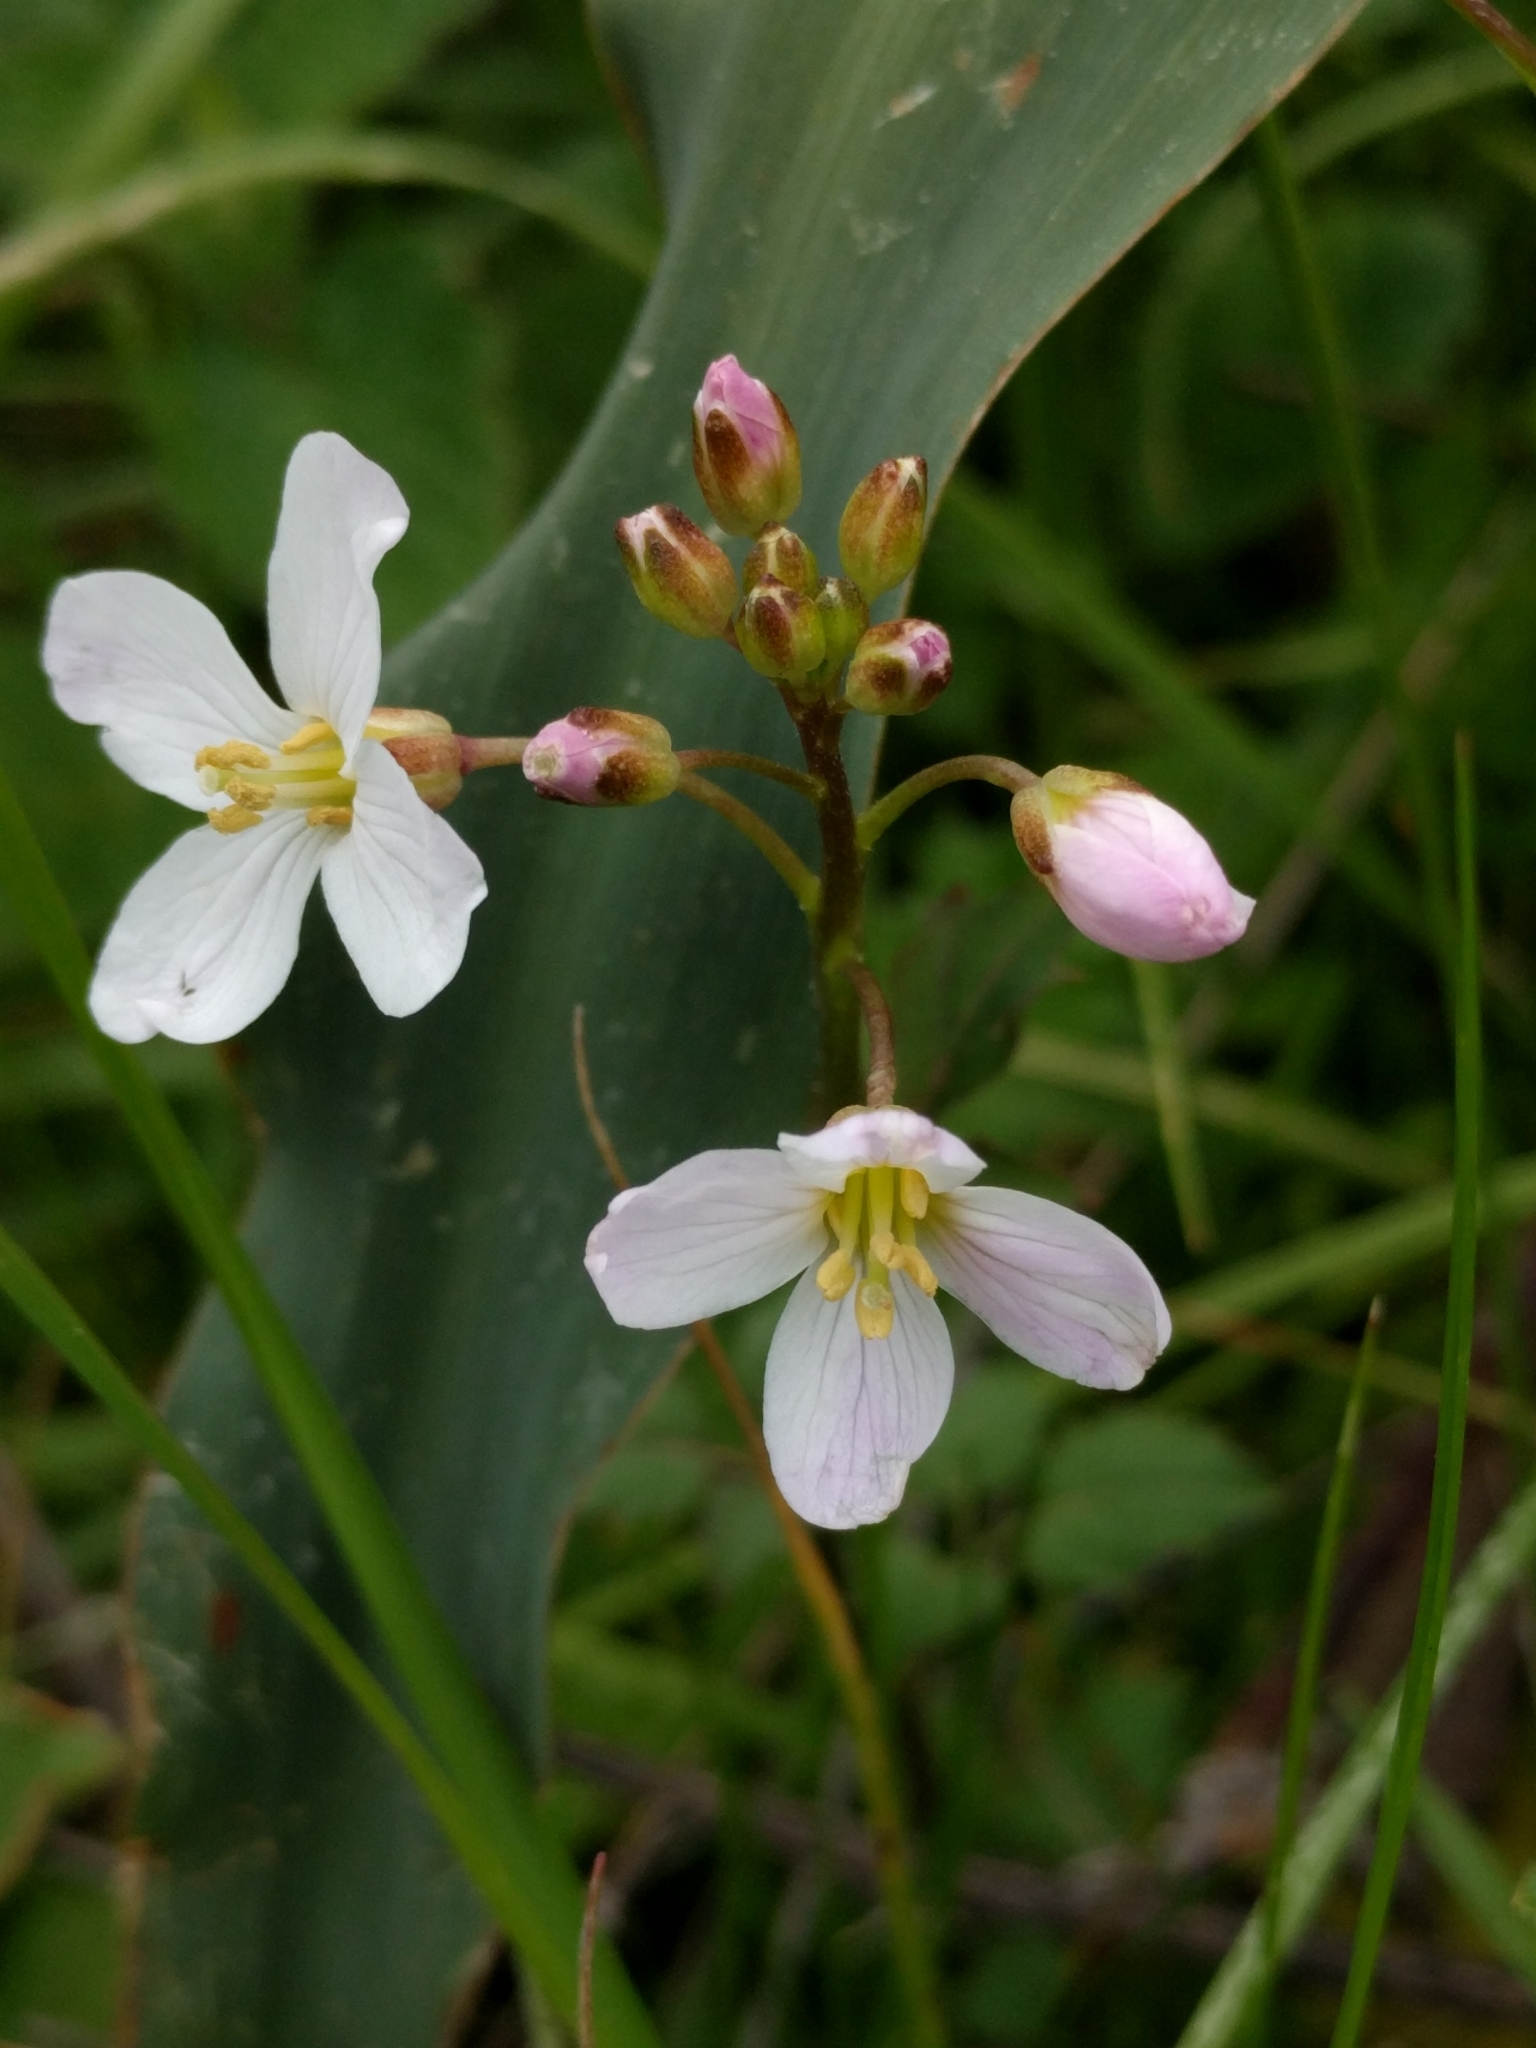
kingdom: Plantae
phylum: Tracheophyta
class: Magnoliopsida
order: Brassicales
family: Brassicaceae
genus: Cardamine
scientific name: Cardamine californica
